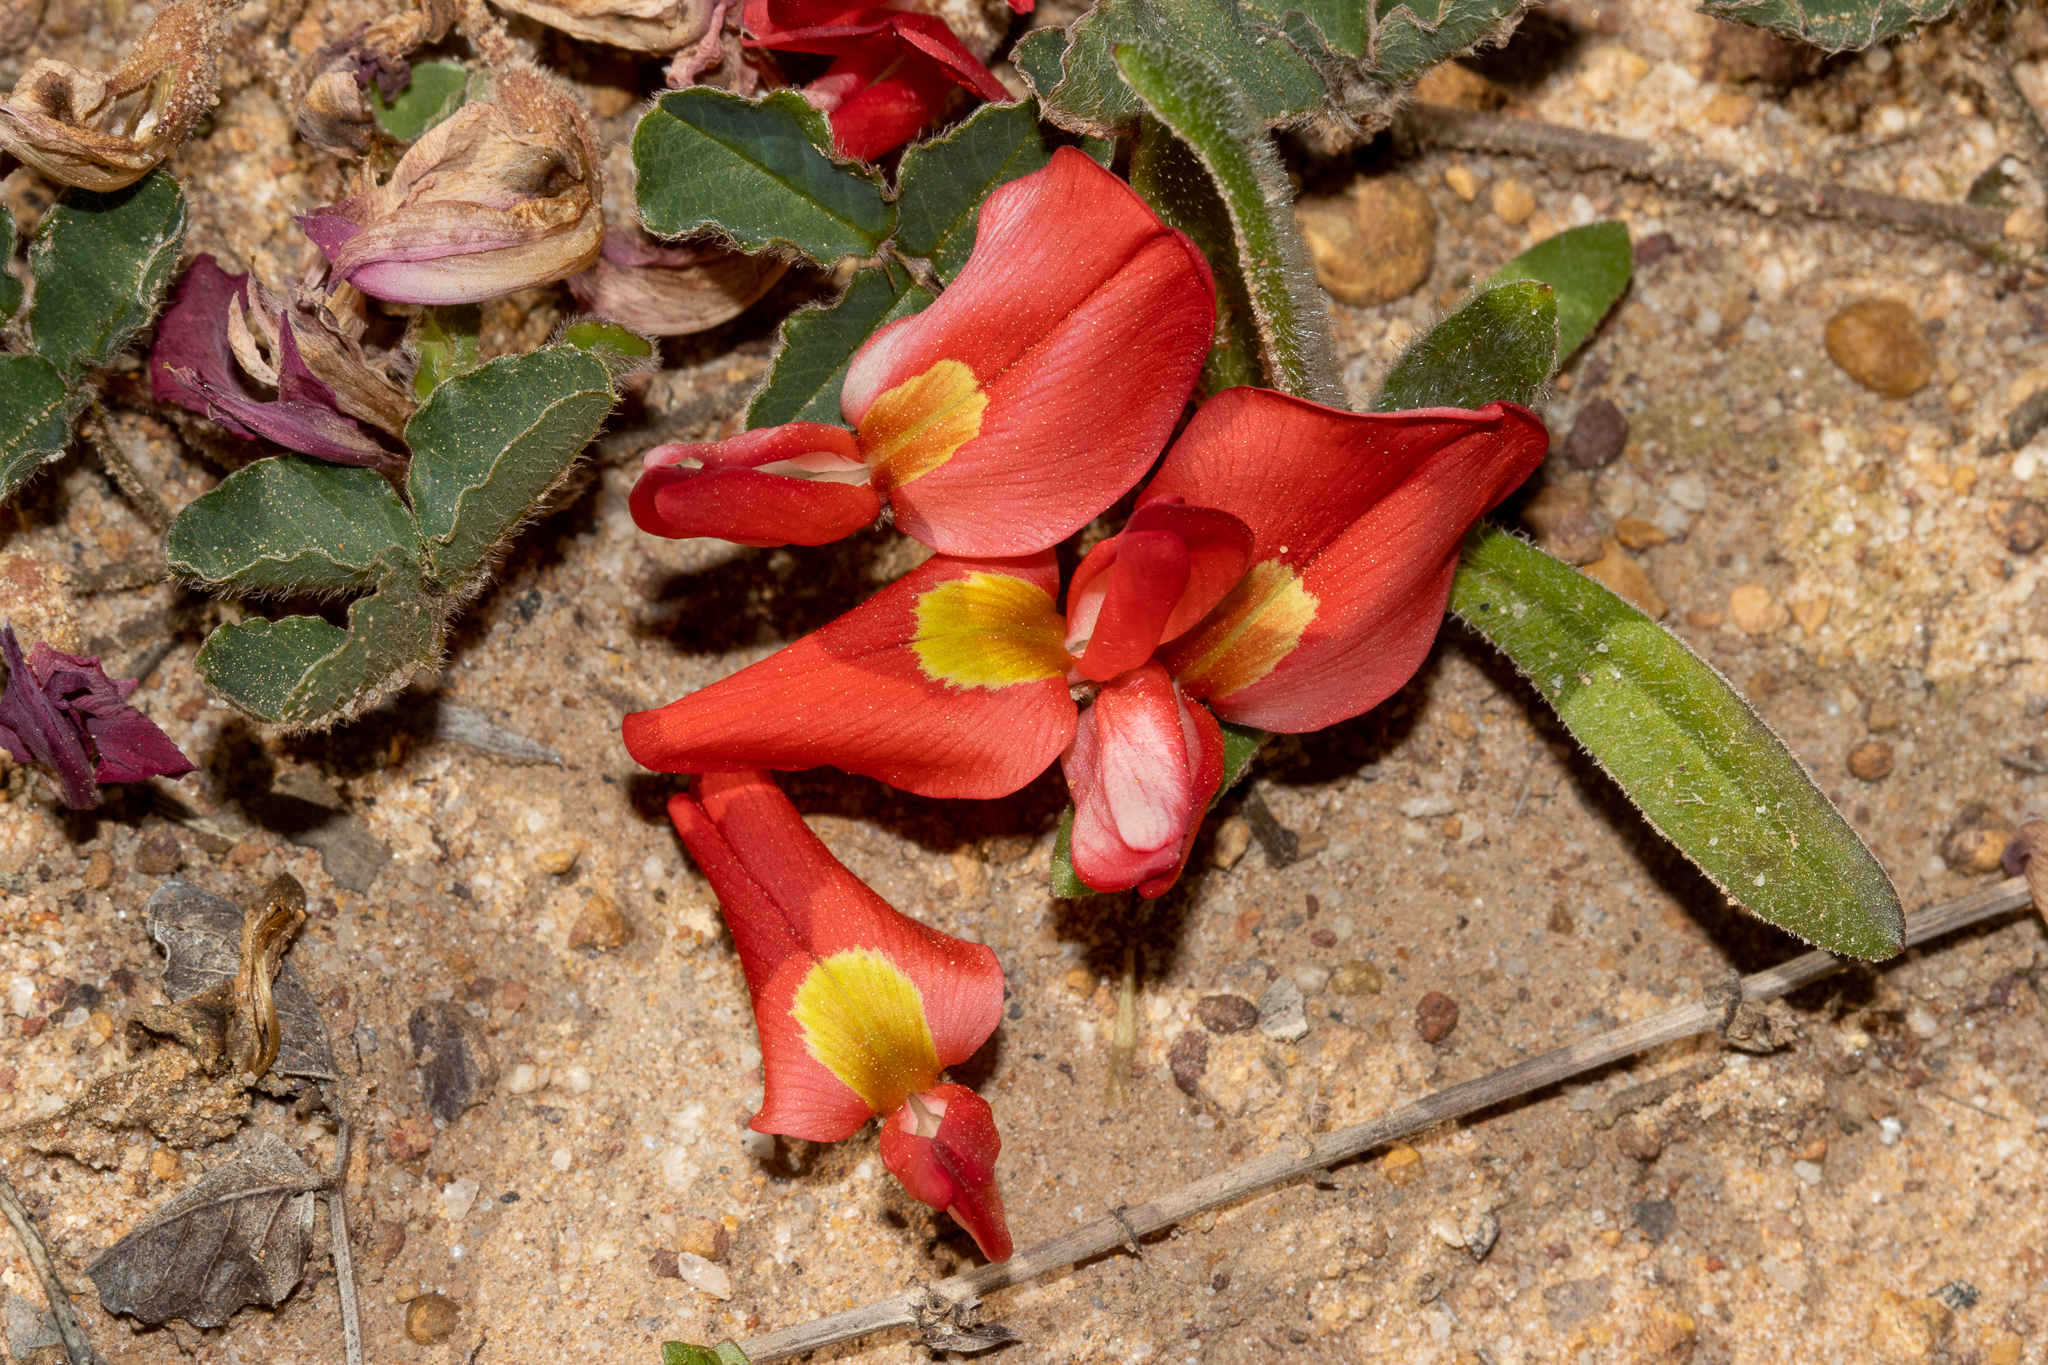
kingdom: Plantae
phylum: Tracheophyta
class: Magnoliopsida
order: Fabales
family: Fabaceae
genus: Kennedia
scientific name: Kennedia prostrata
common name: Running-postman
